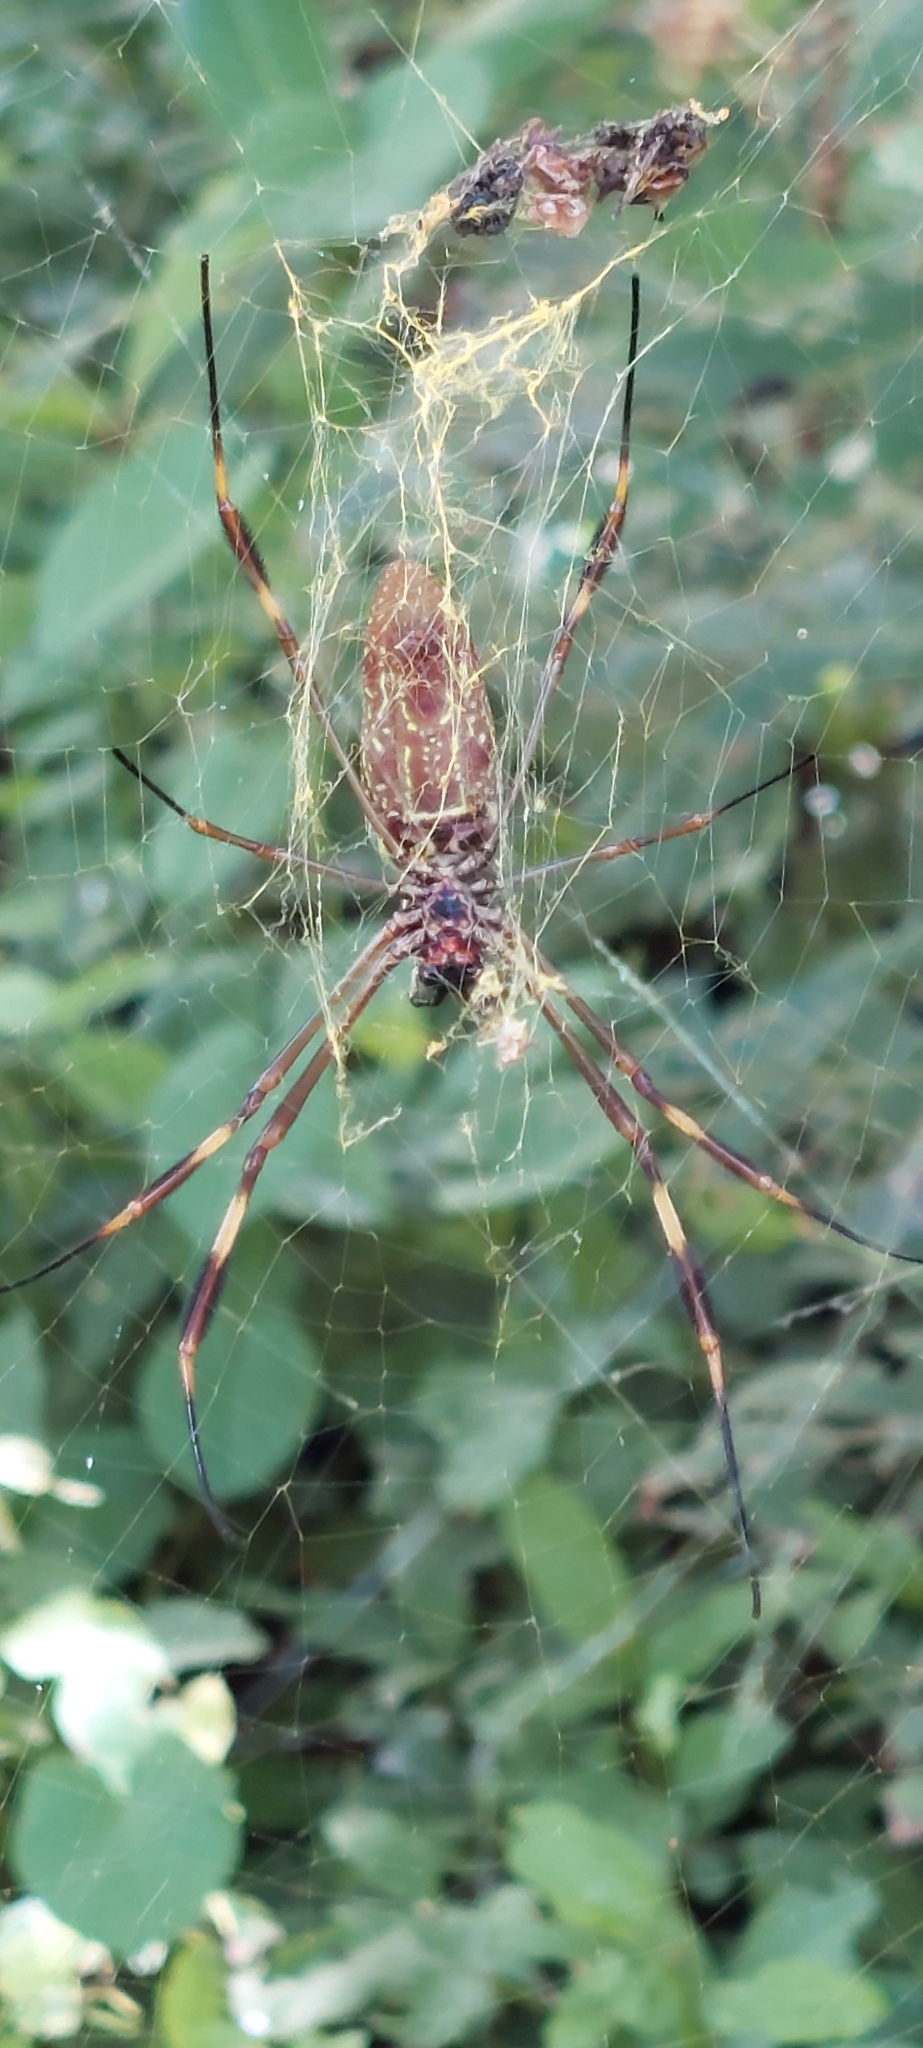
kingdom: Animalia
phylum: Arthropoda
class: Arachnida
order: Araneae
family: Araneidae
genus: Trichonephila
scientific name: Trichonephila clavipes
